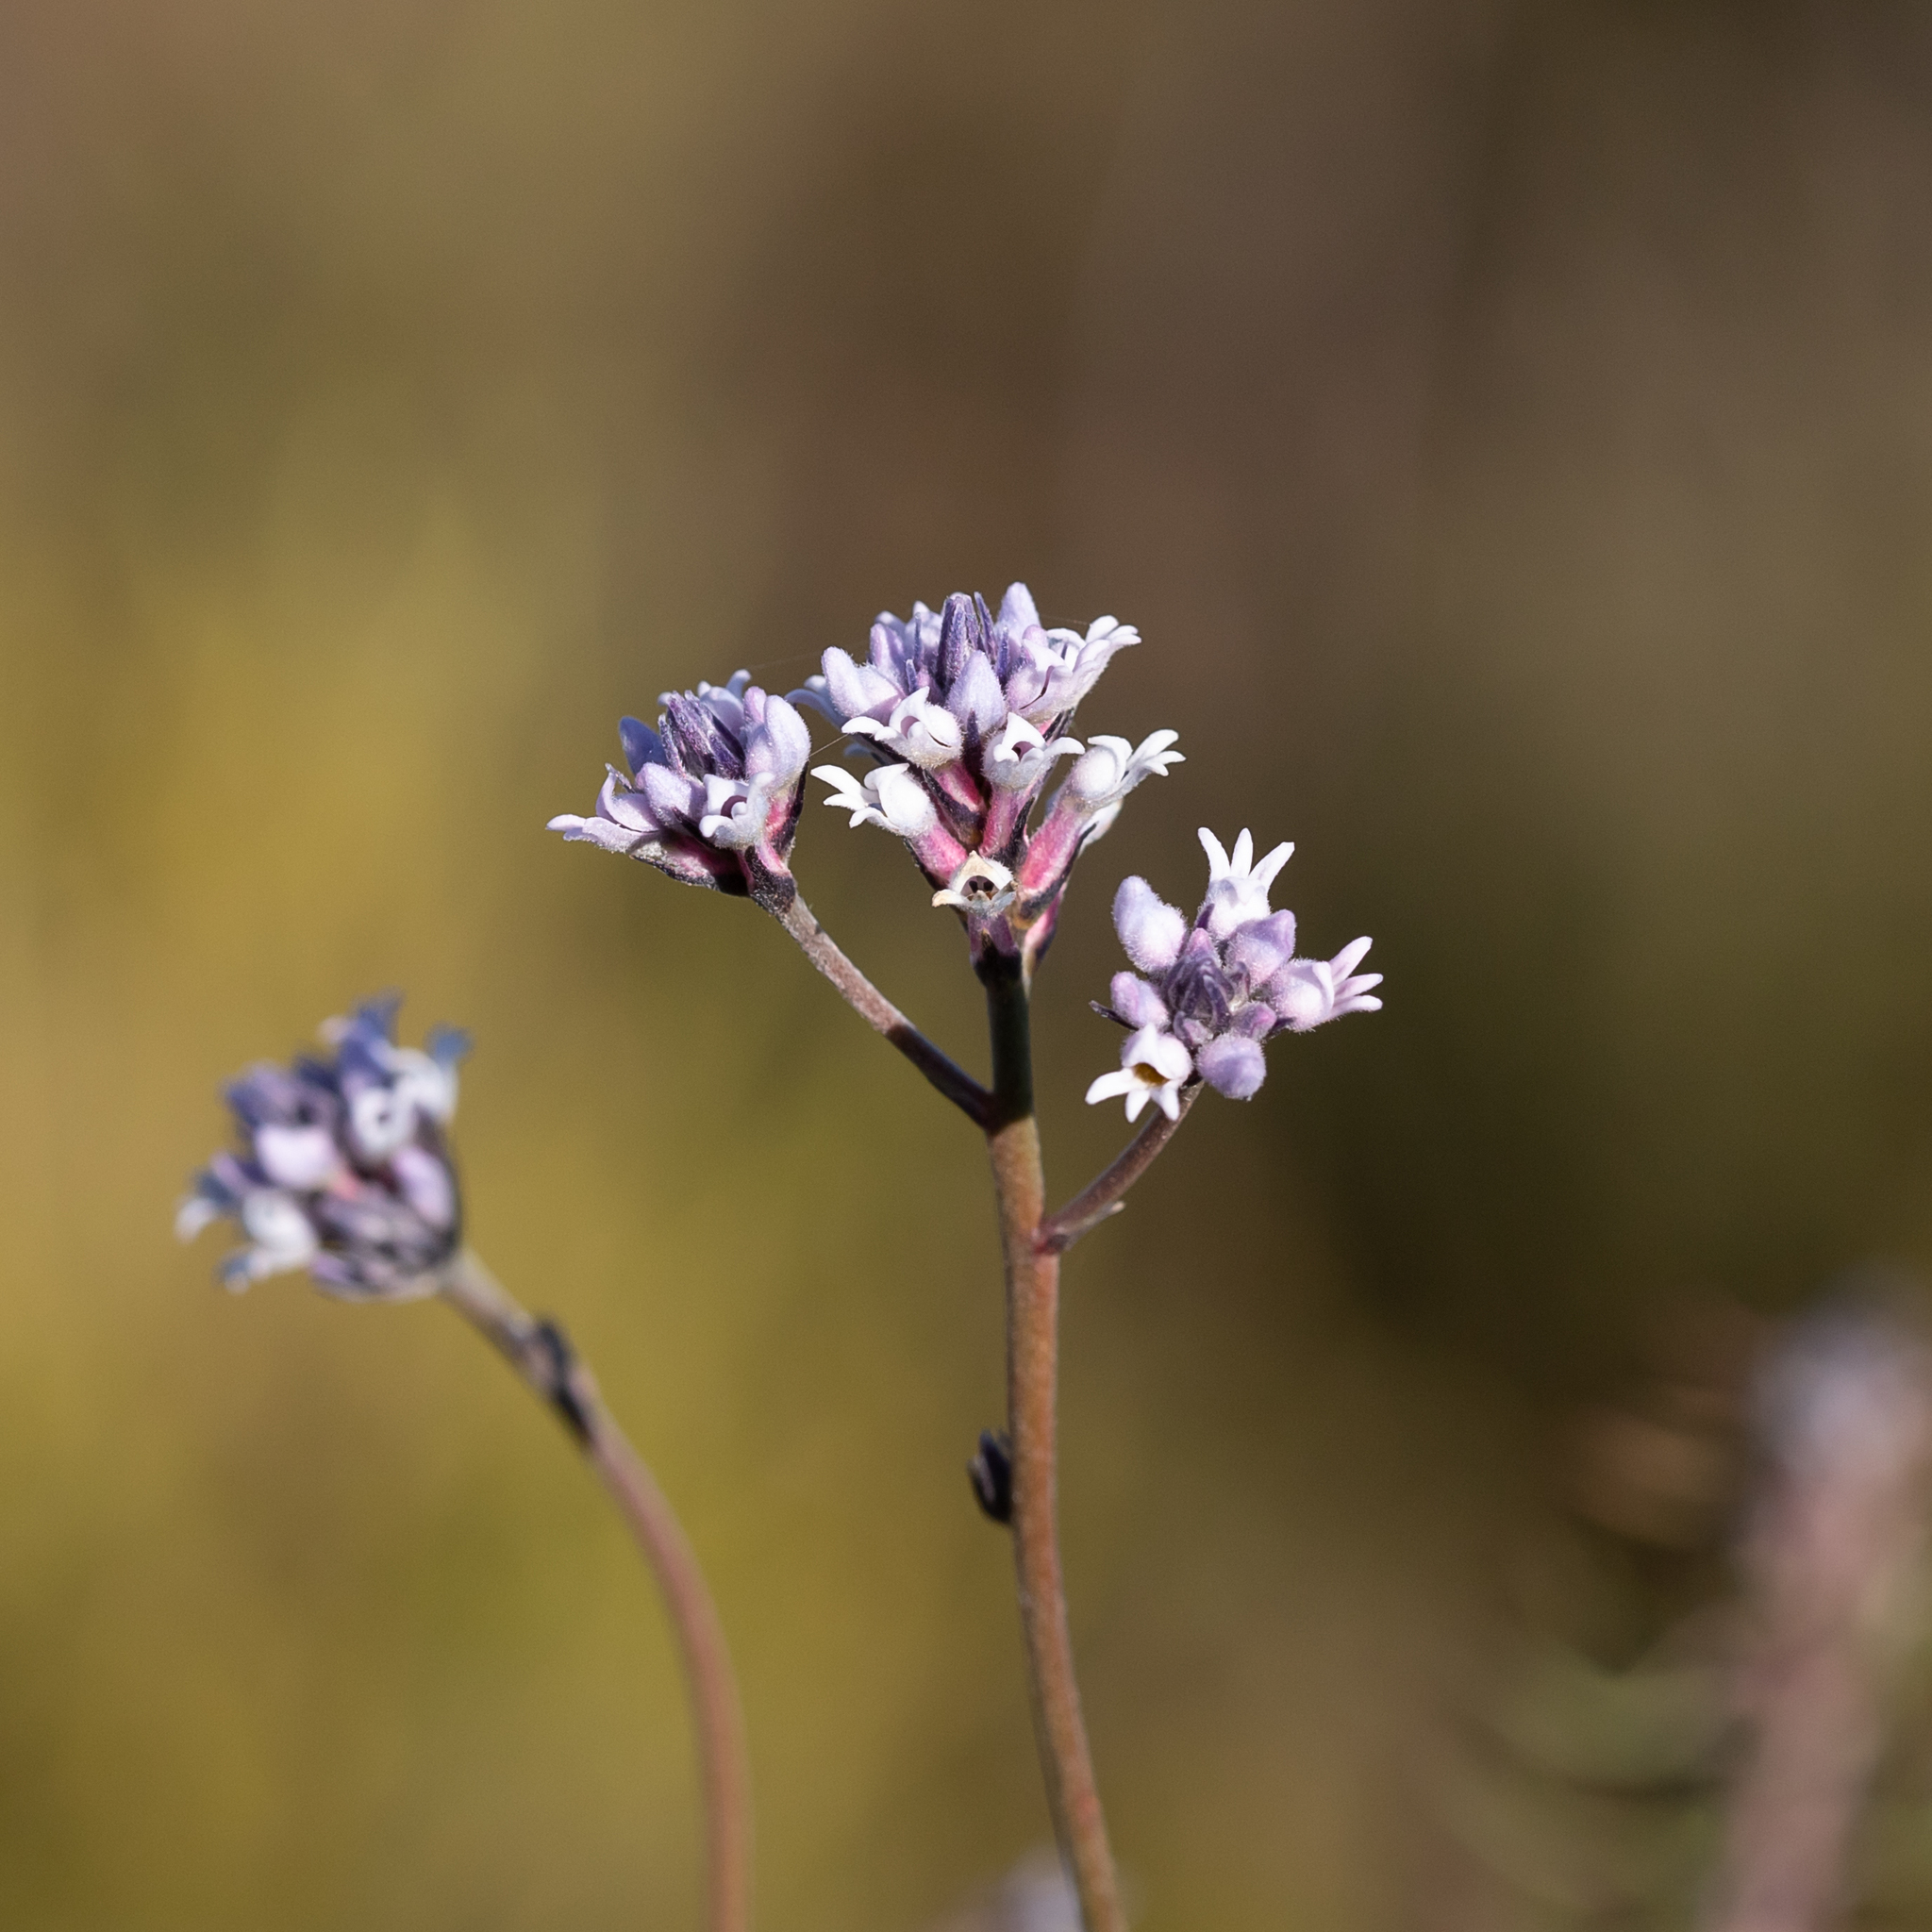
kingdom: Plantae
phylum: Tracheophyta
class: Magnoliopsida
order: Proteales
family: Proteaceae
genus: Conospermum
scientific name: Conospermum patens
